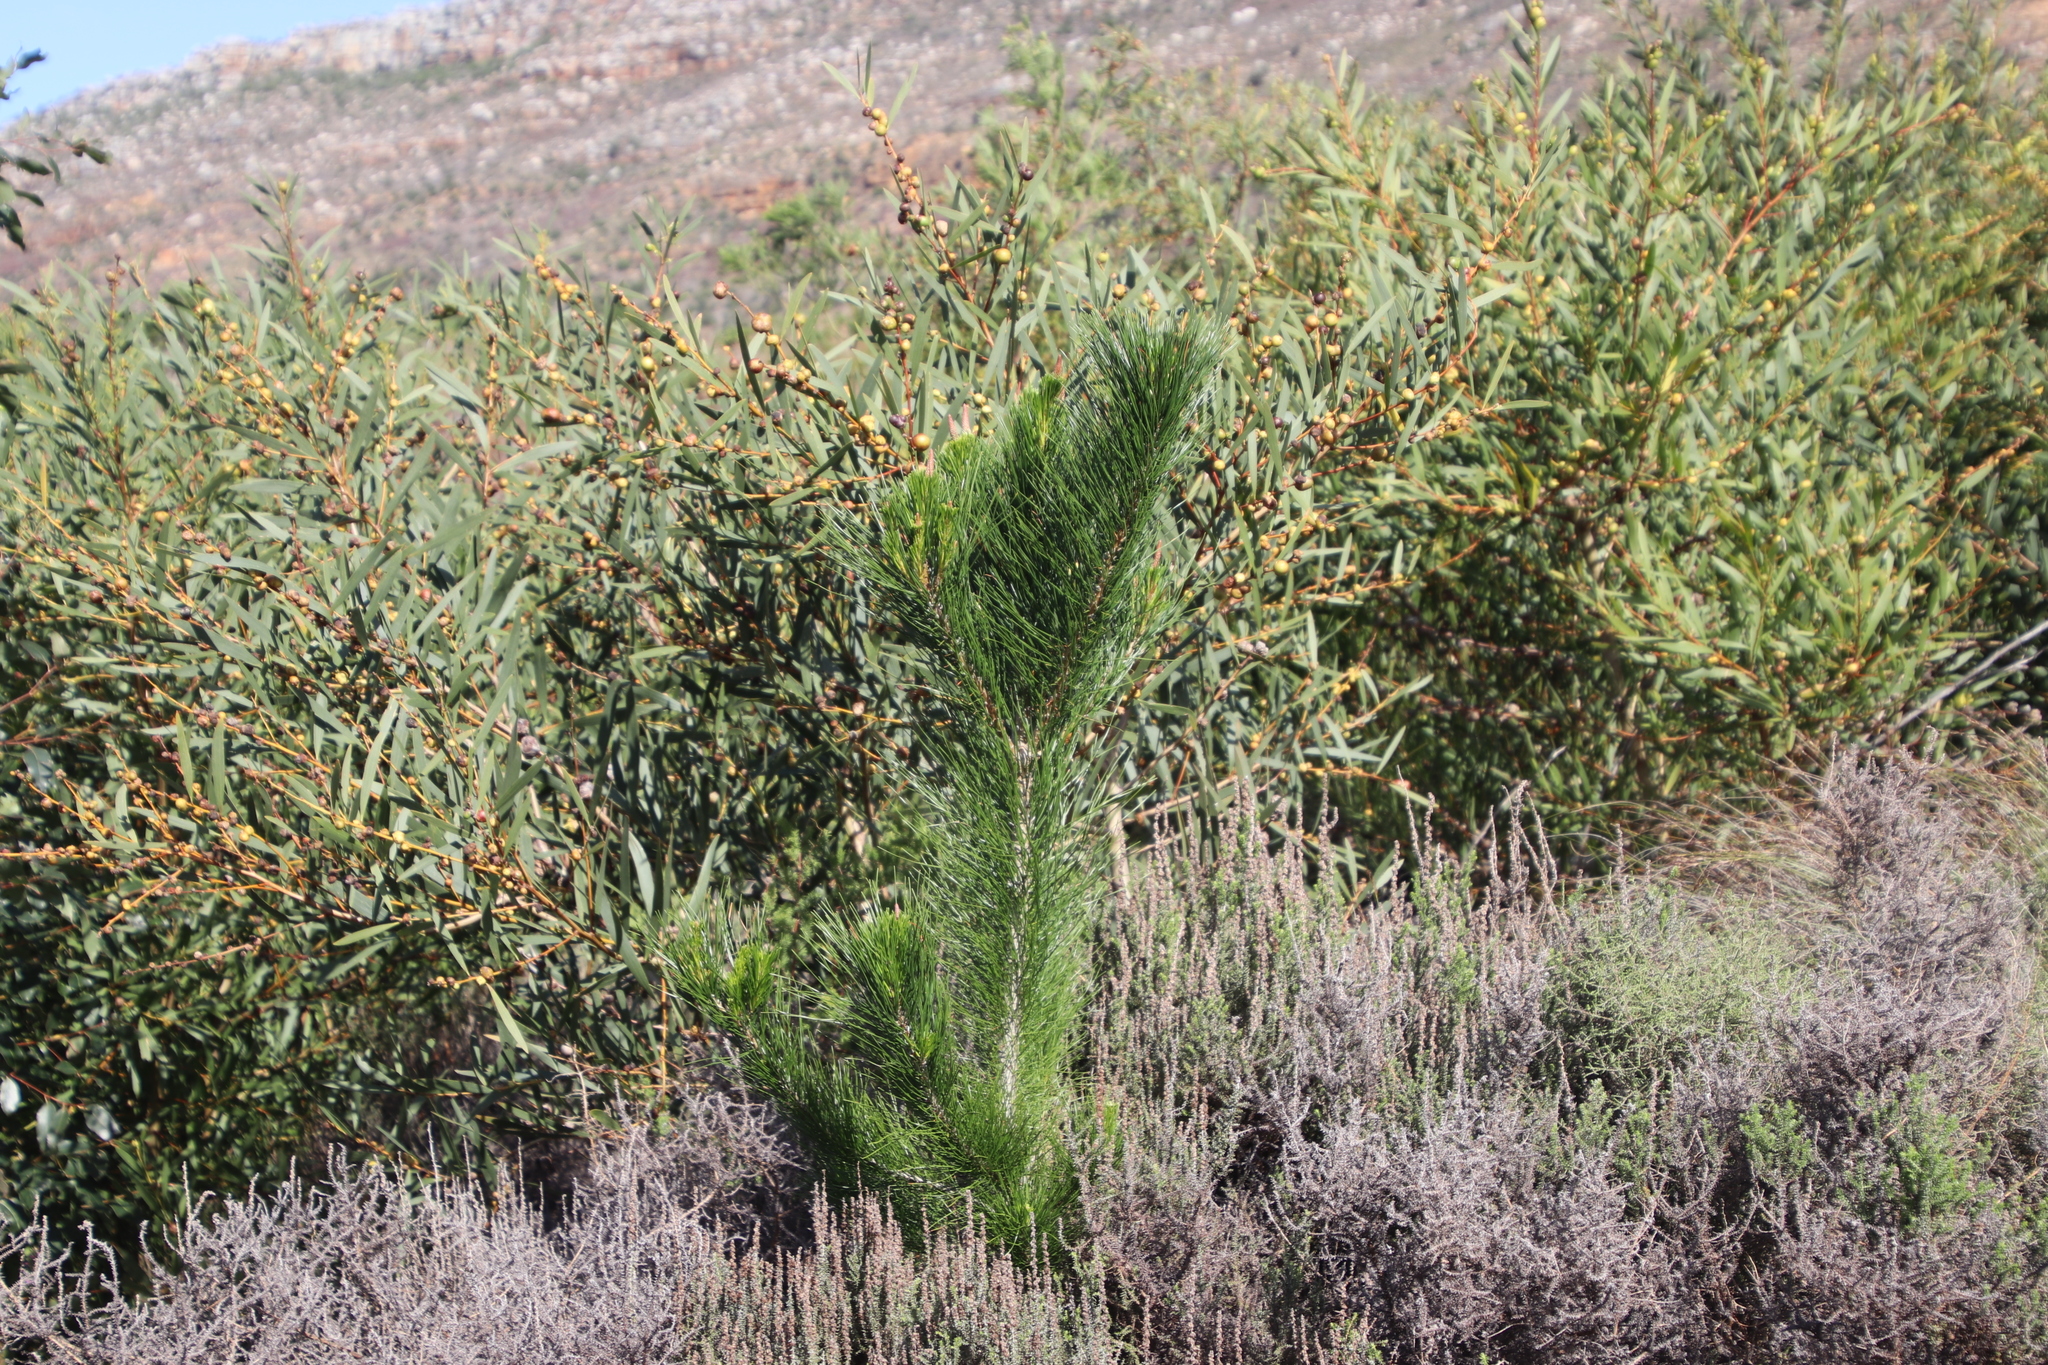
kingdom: Plantae
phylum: Tracheophyta
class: Pinopsida
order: Pinales
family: Pinaceae
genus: Pinus
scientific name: Pinus radiata
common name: Monterey pine
